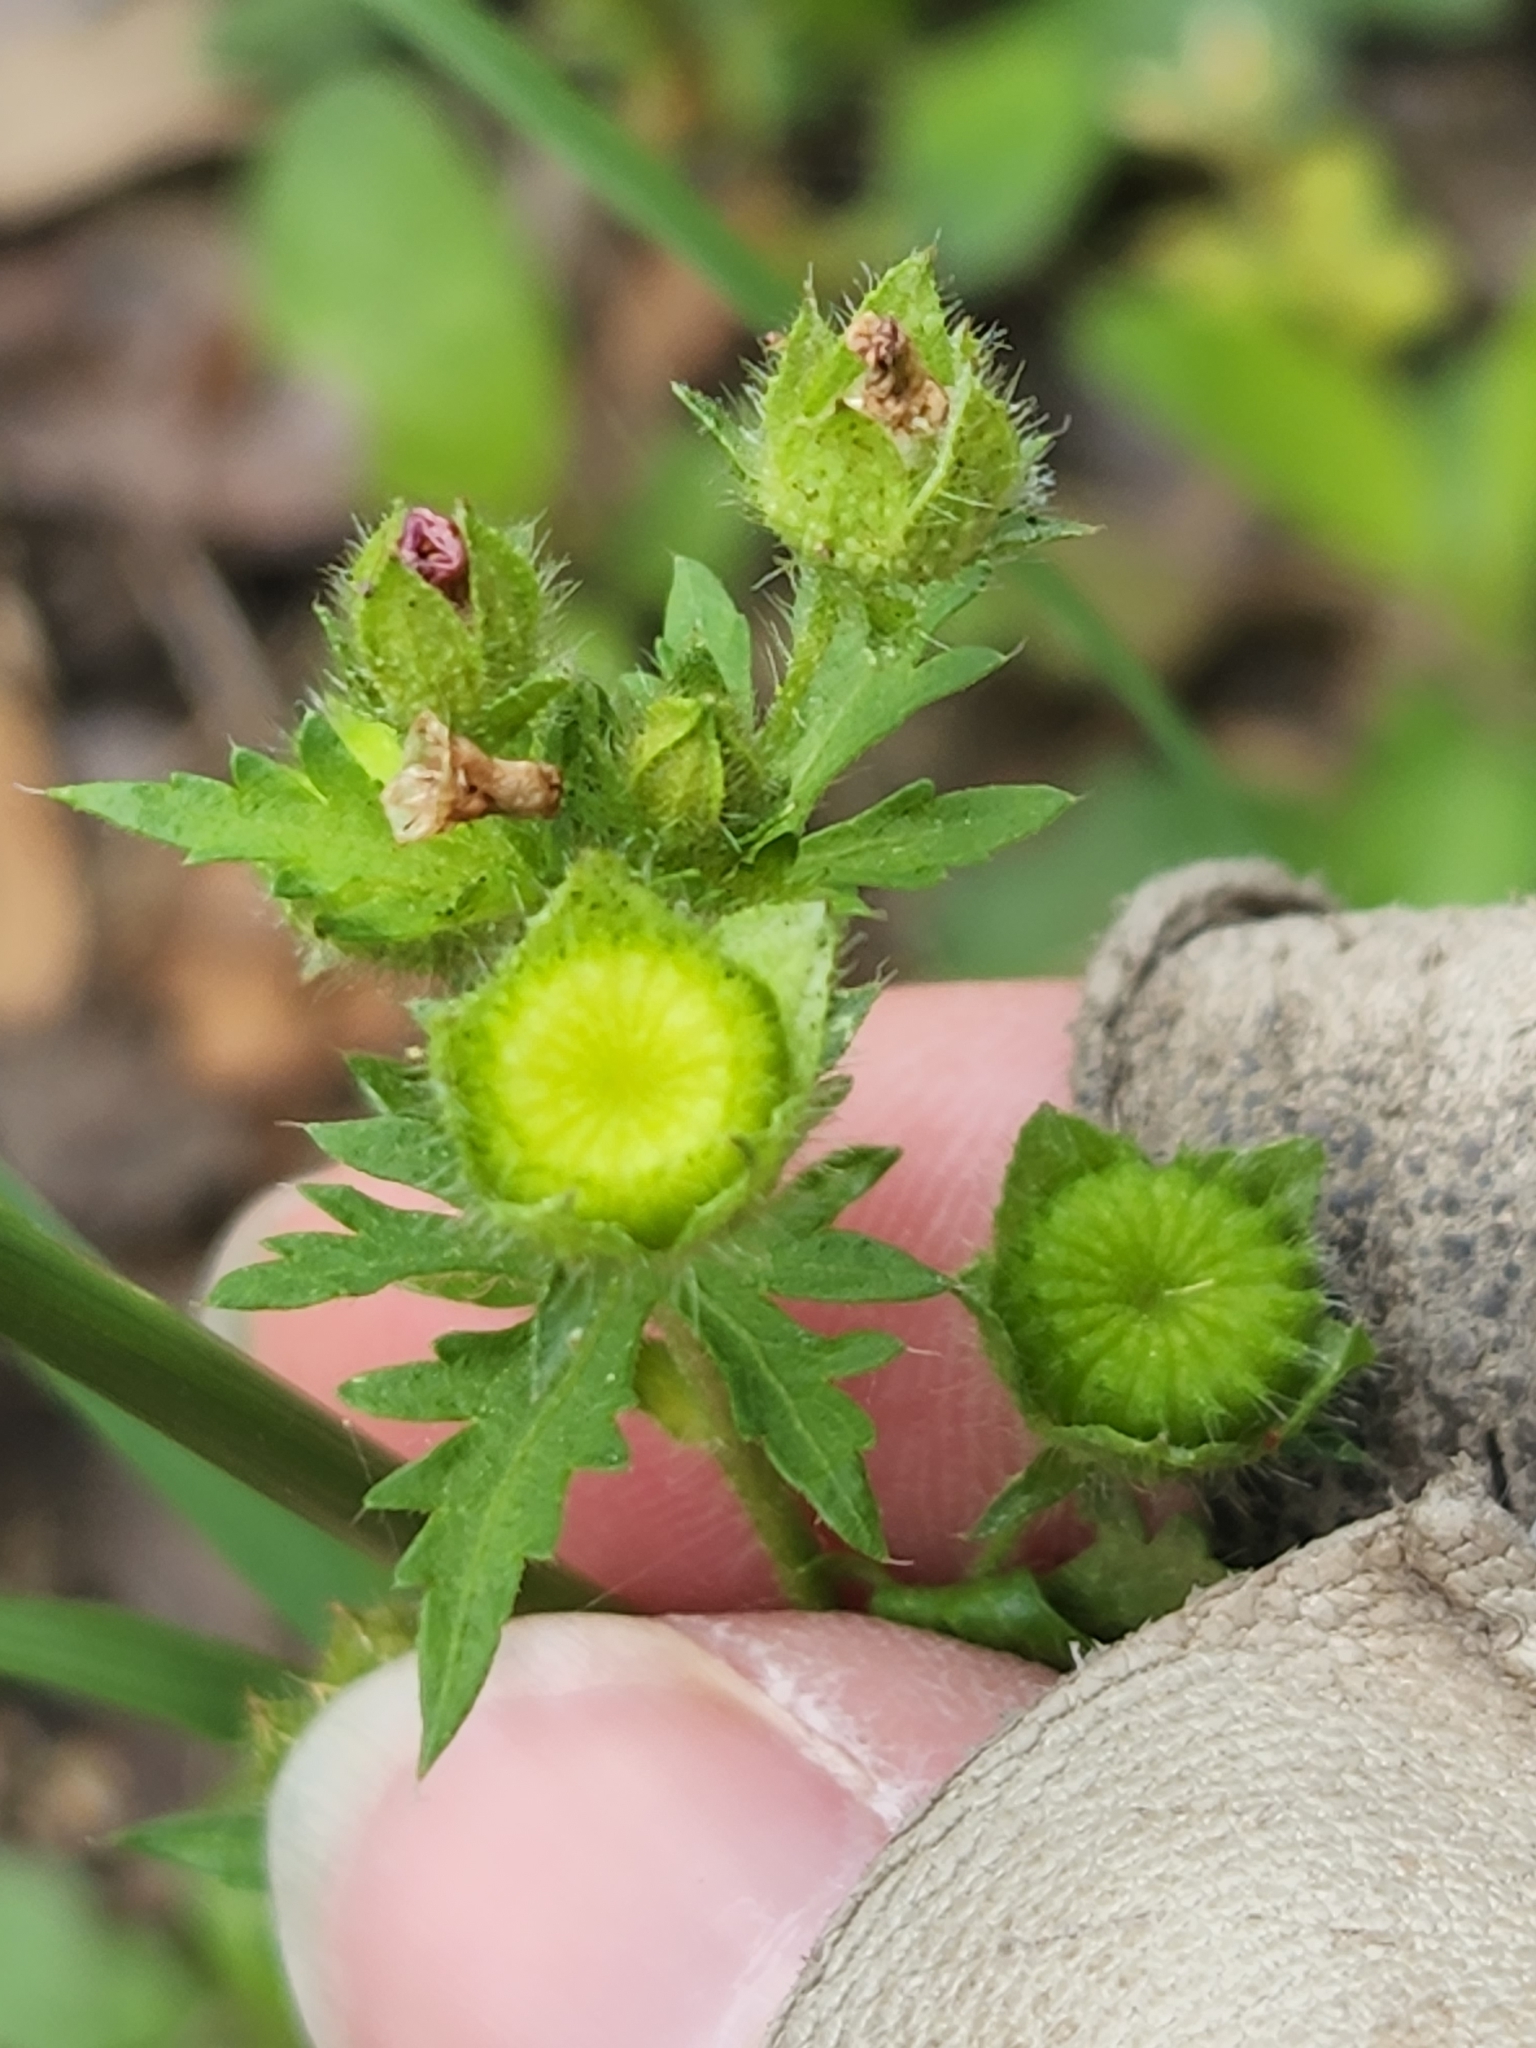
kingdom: Plantae
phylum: Tracheophyta
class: Magnoliopsida
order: Malvales
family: Malvaceae
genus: Modiola
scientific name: Modiola caroliniana
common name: Carolina bristlemallow
